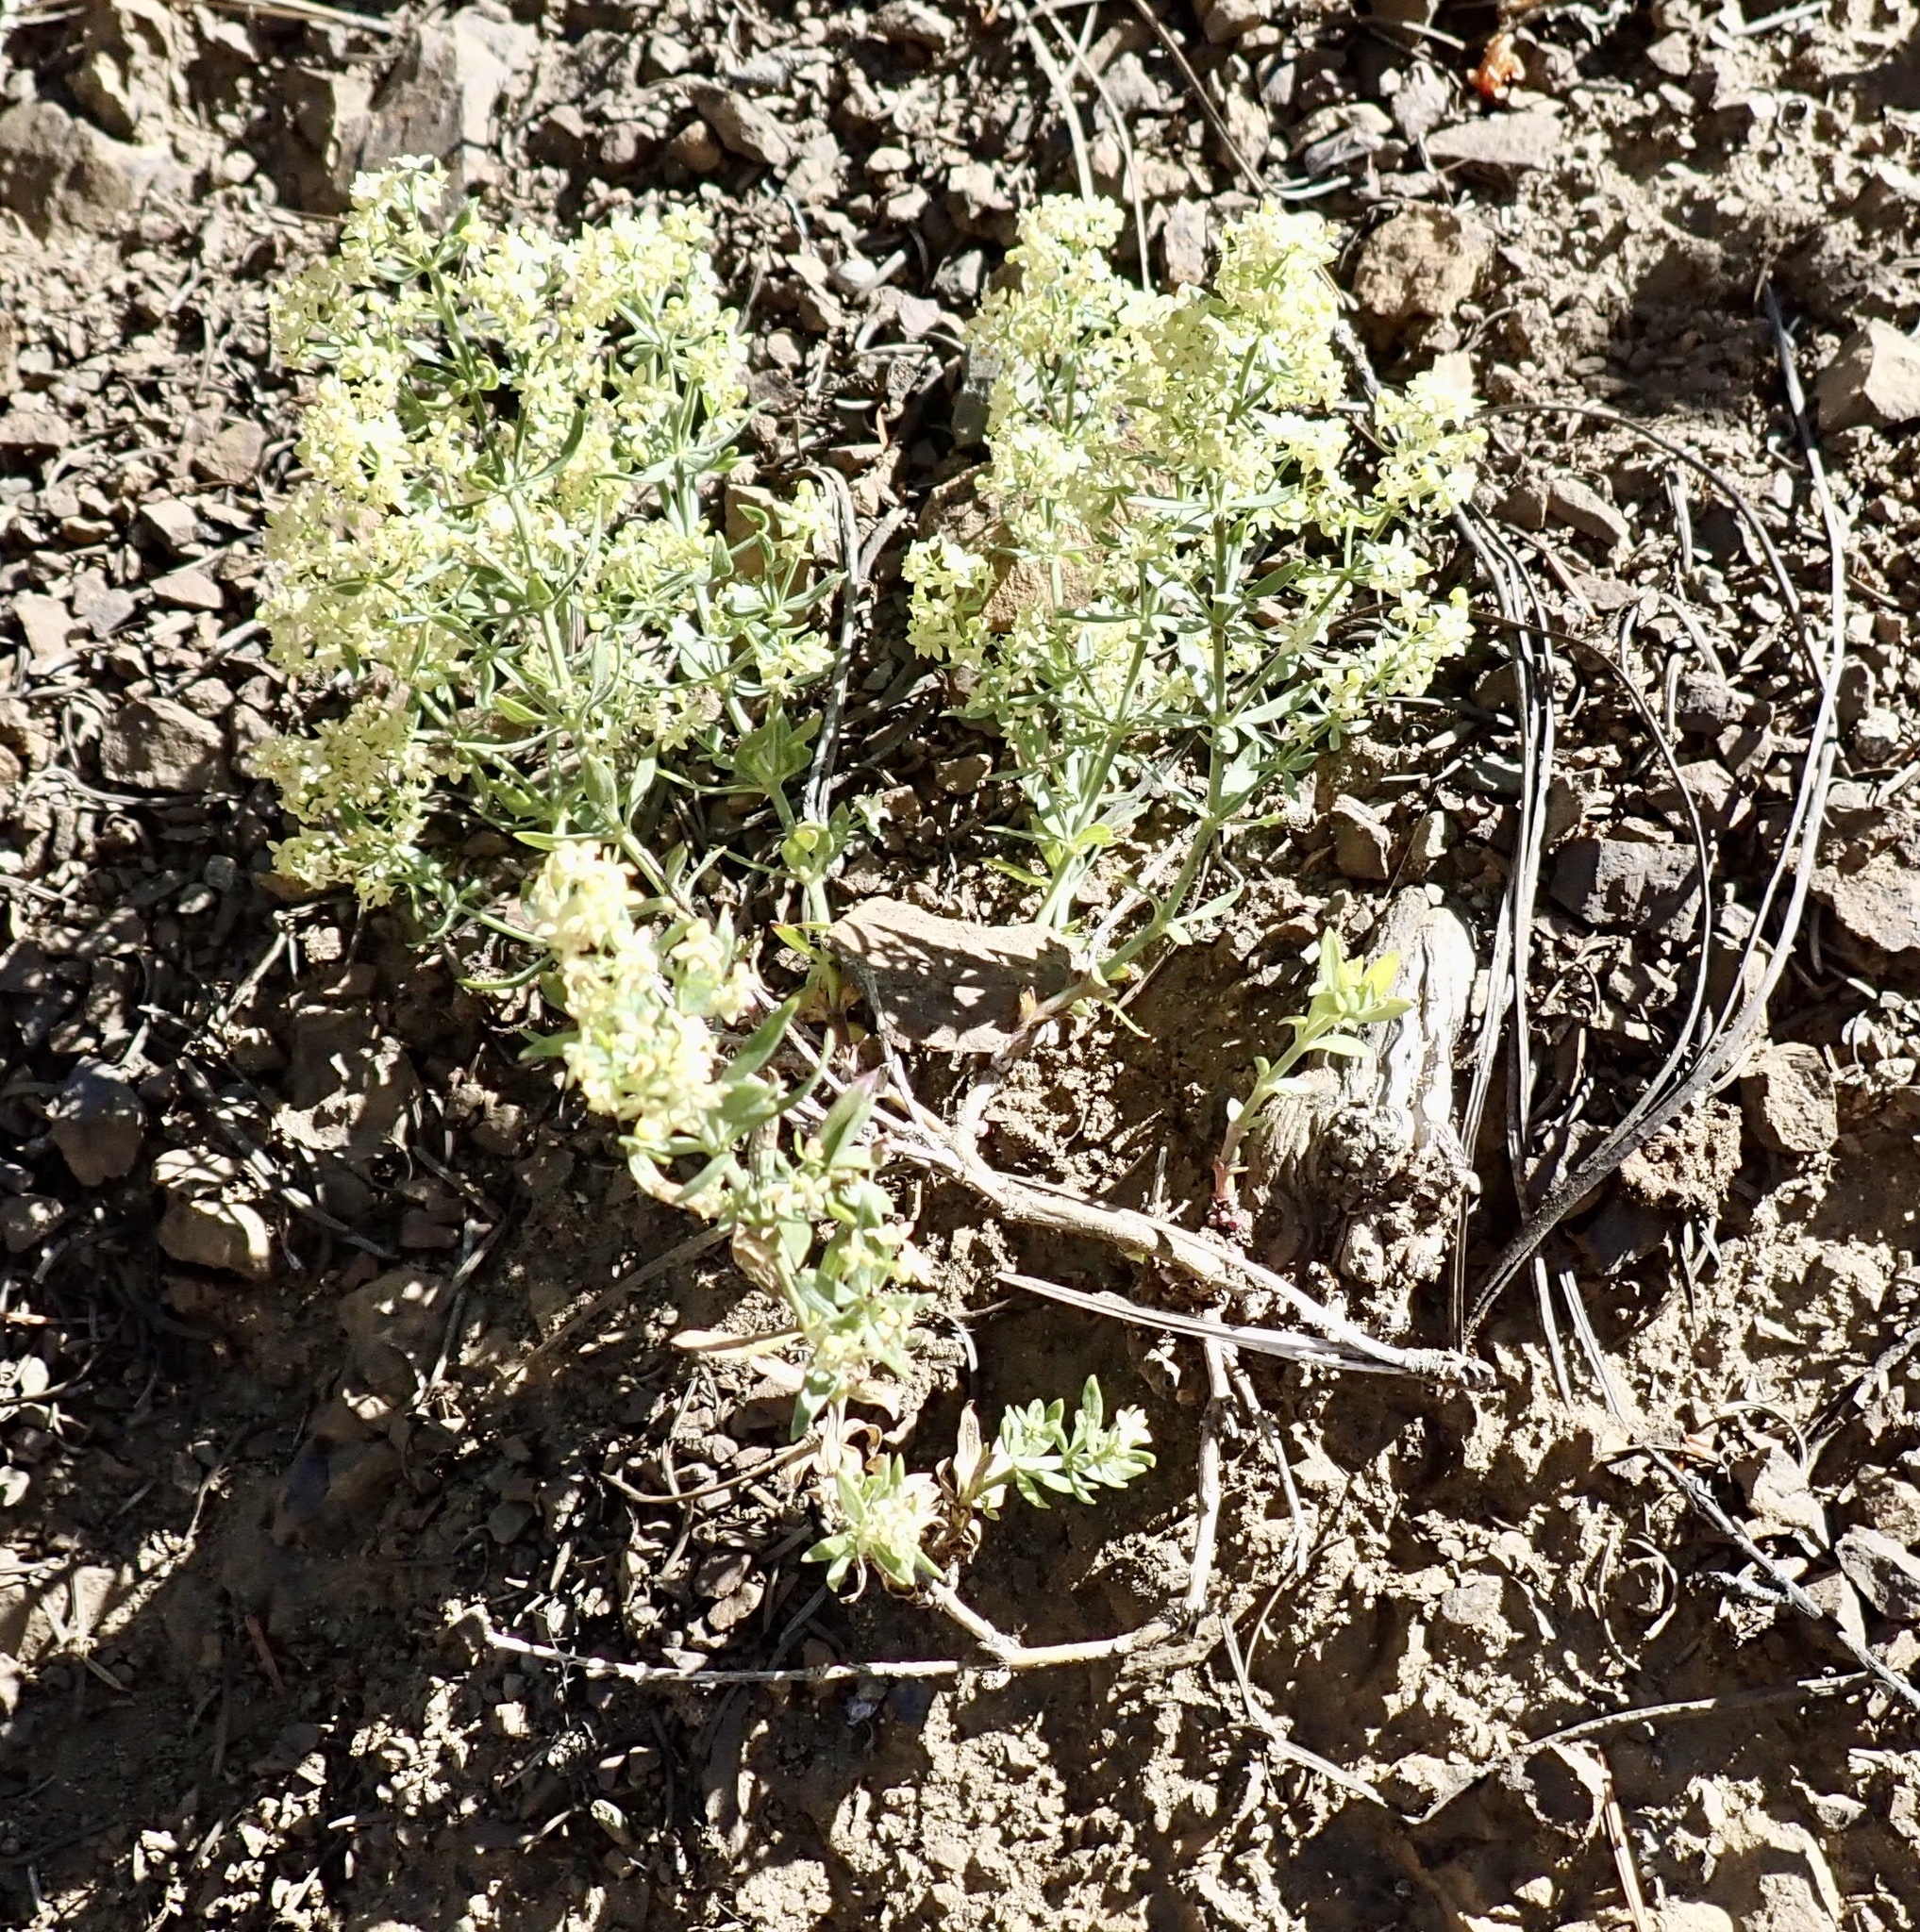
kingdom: Plantae
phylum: Tracheophyta
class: Magnoliopsida
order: Gentianales
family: Rubiaceae
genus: Galium
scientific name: Galium serpenticum
